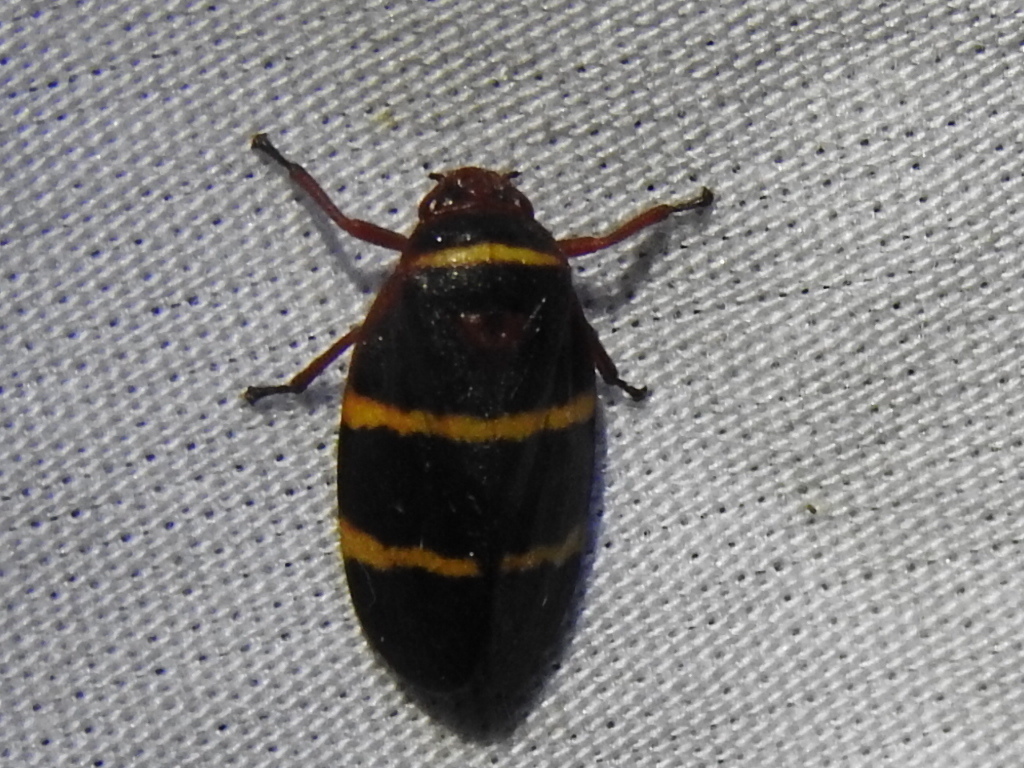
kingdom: Animalia
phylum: Arthropoda
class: Insecta
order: Hemiptera
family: Cercopidae
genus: Prosapia
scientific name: Prosapia bicincta
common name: Twolined spittlebug
